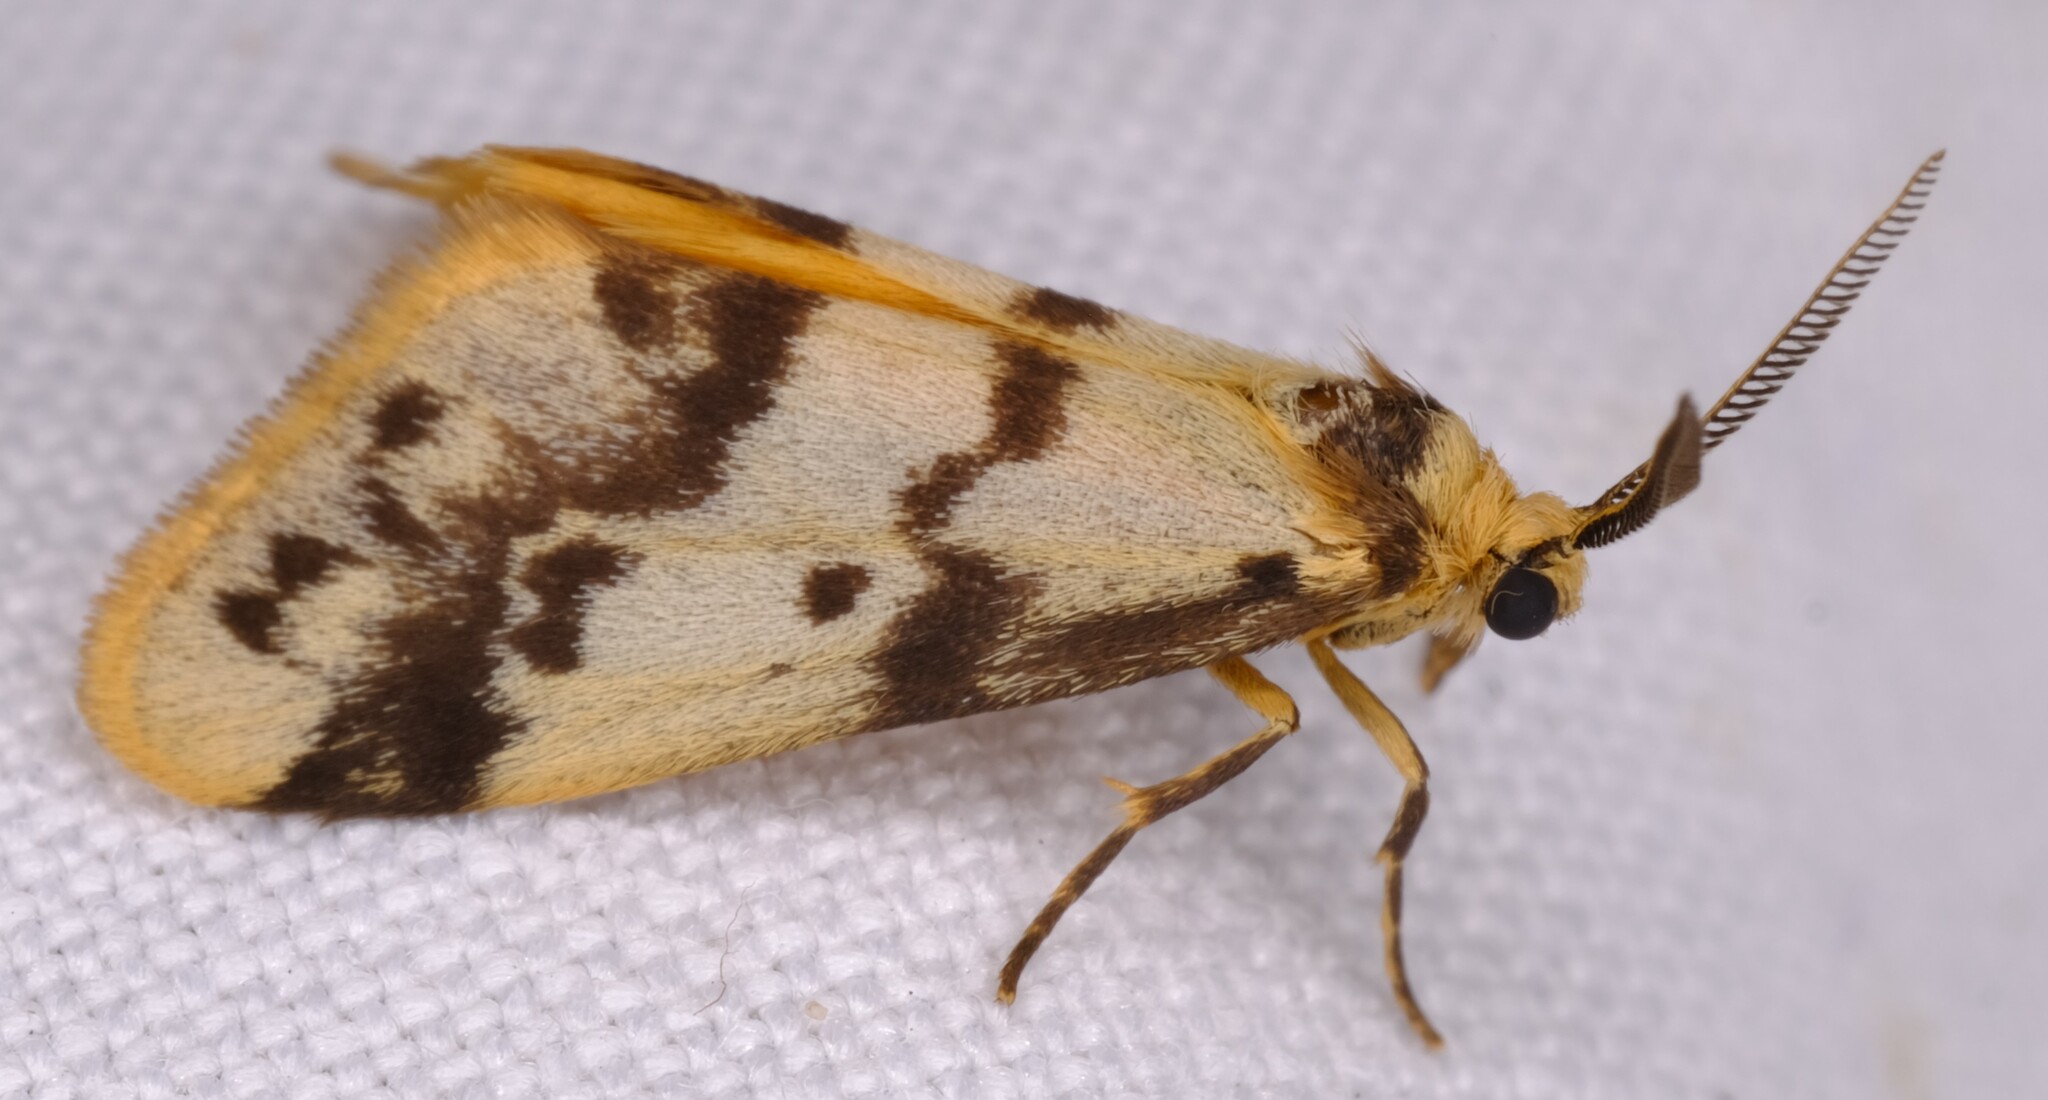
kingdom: Animalia
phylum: Arthropoda
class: Insecta
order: Lepidoptera
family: Erebidae
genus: Anestia
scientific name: Anestia
